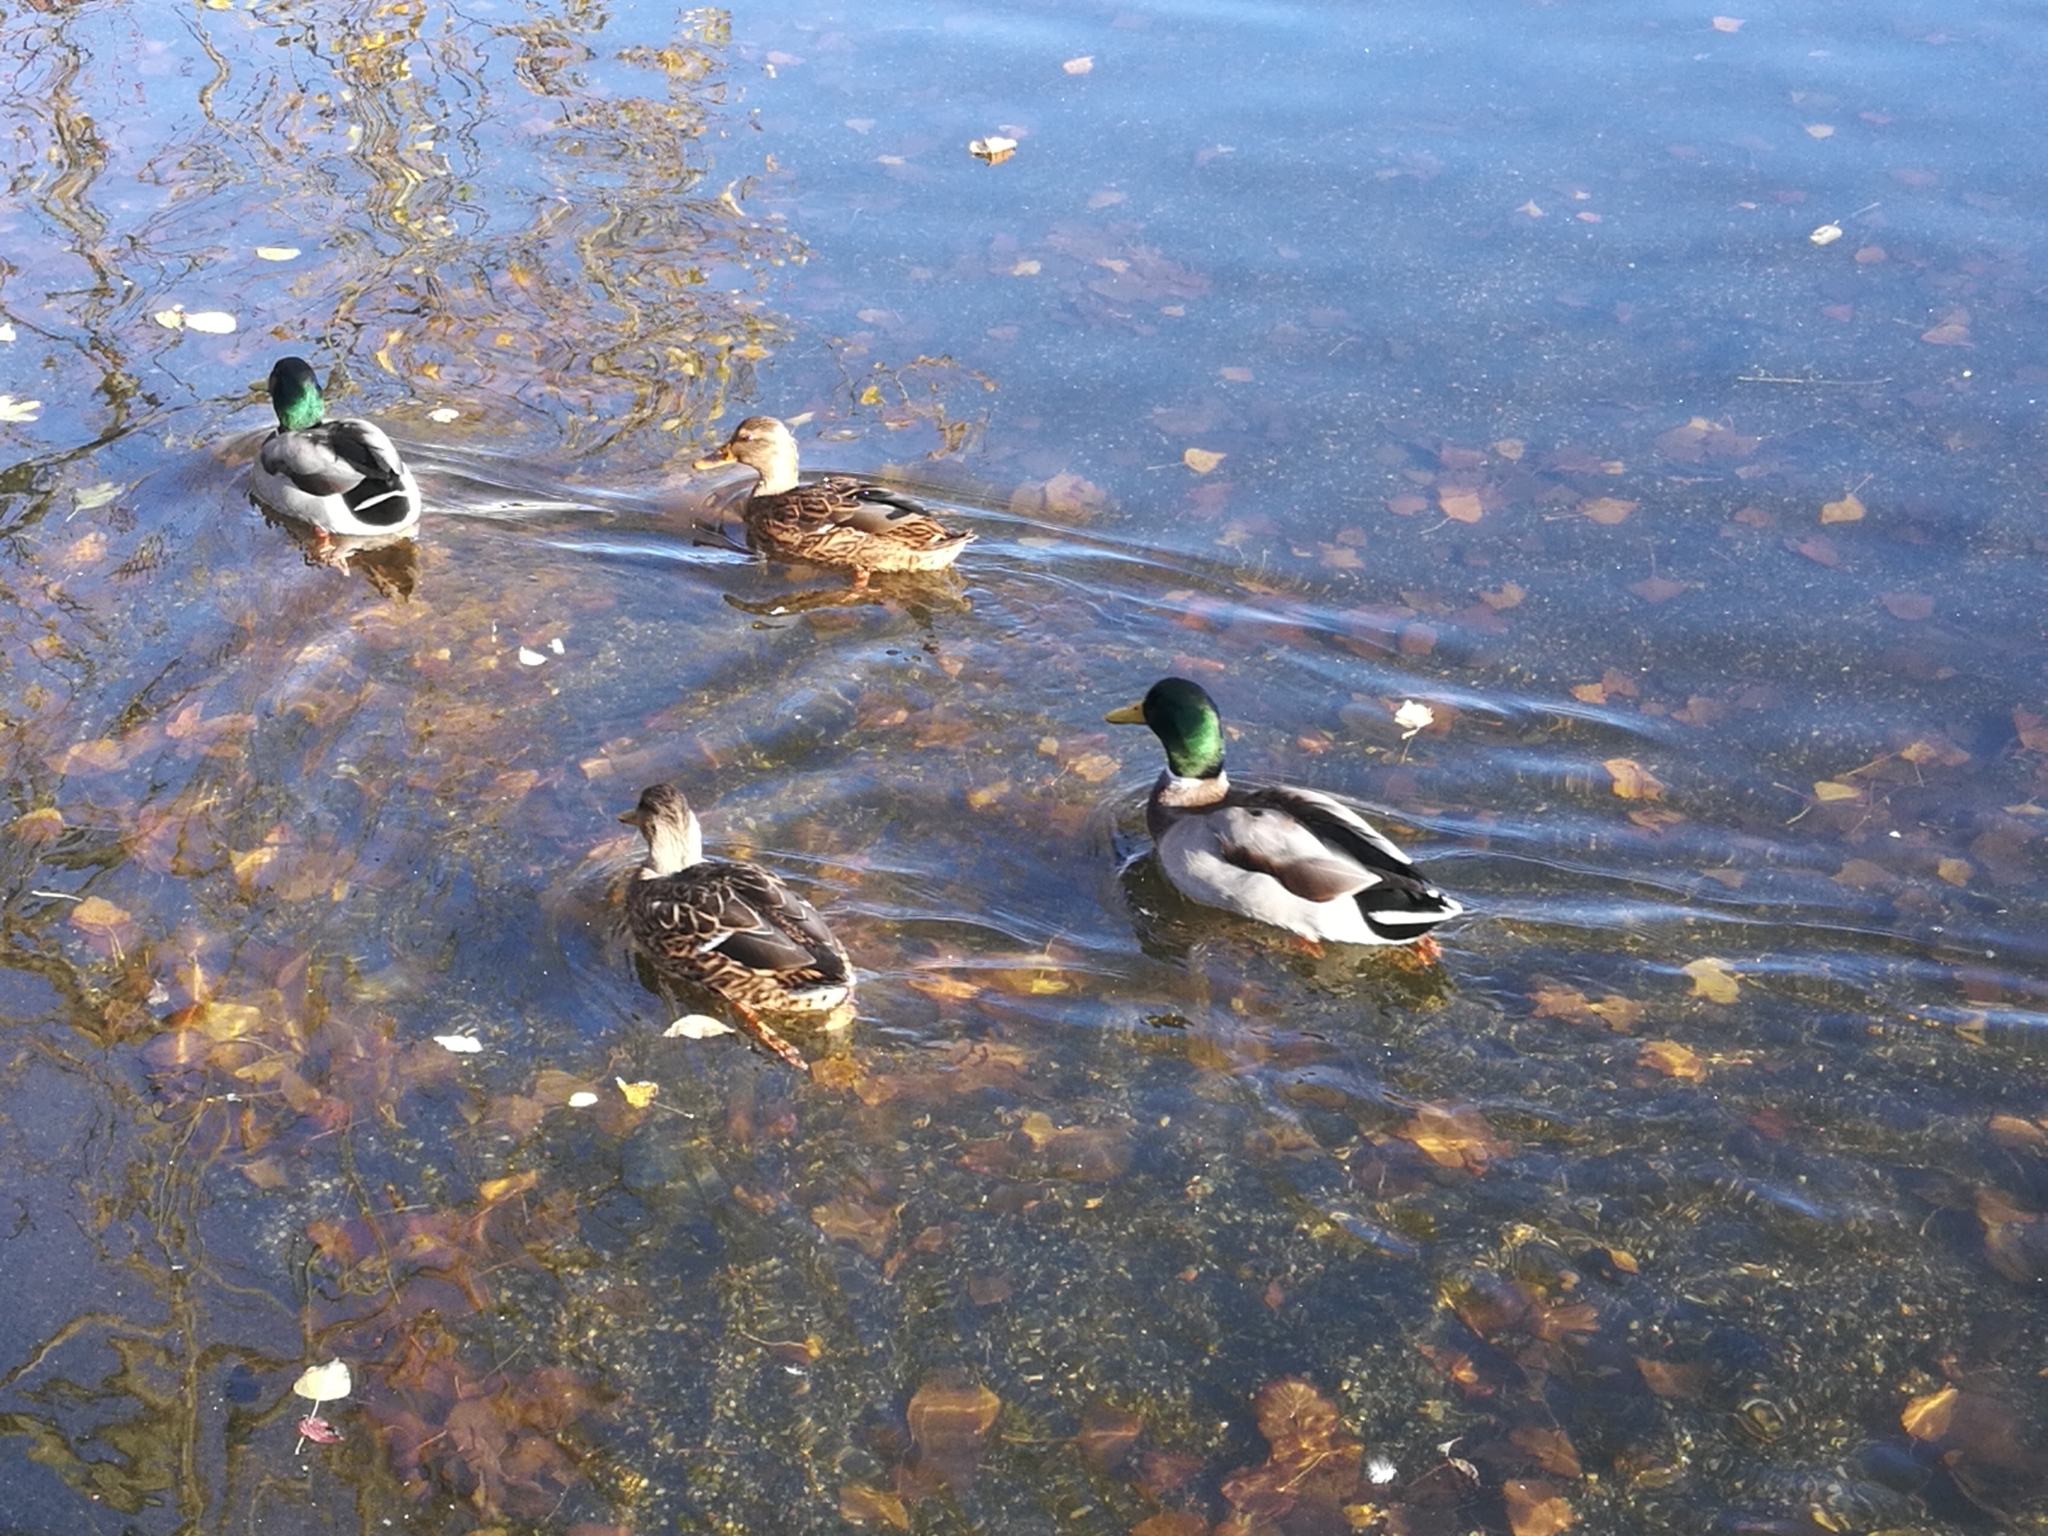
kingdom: Animalia
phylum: Chordata
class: Aves
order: Anseriformes
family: Anatidae
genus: Anas
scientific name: Anas platyrhynchos
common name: Mallard
